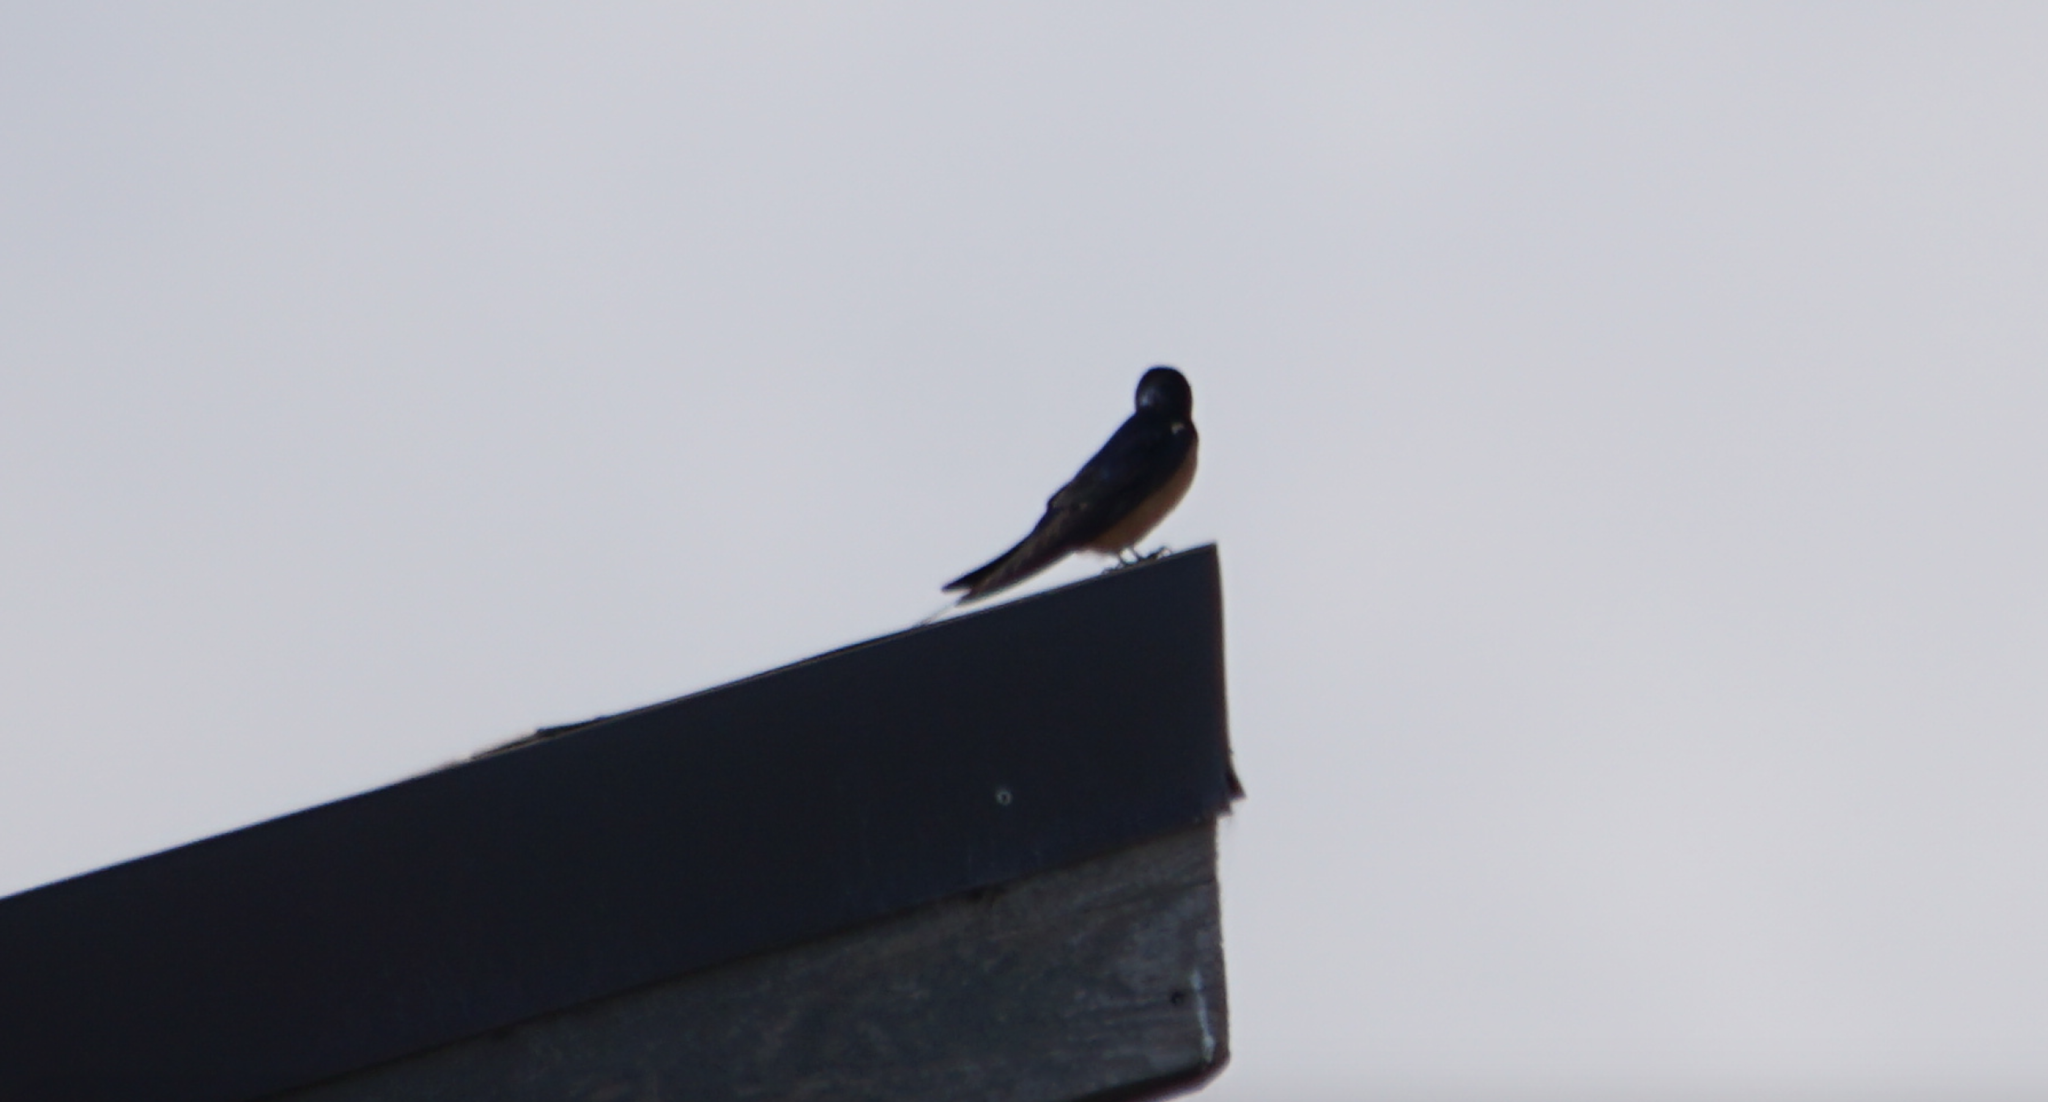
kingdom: Animalia
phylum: Chordata
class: Aves
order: Passeriformes
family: Hirundinidae
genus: Hirundo
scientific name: Hirundo rustica
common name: Barn swallow
